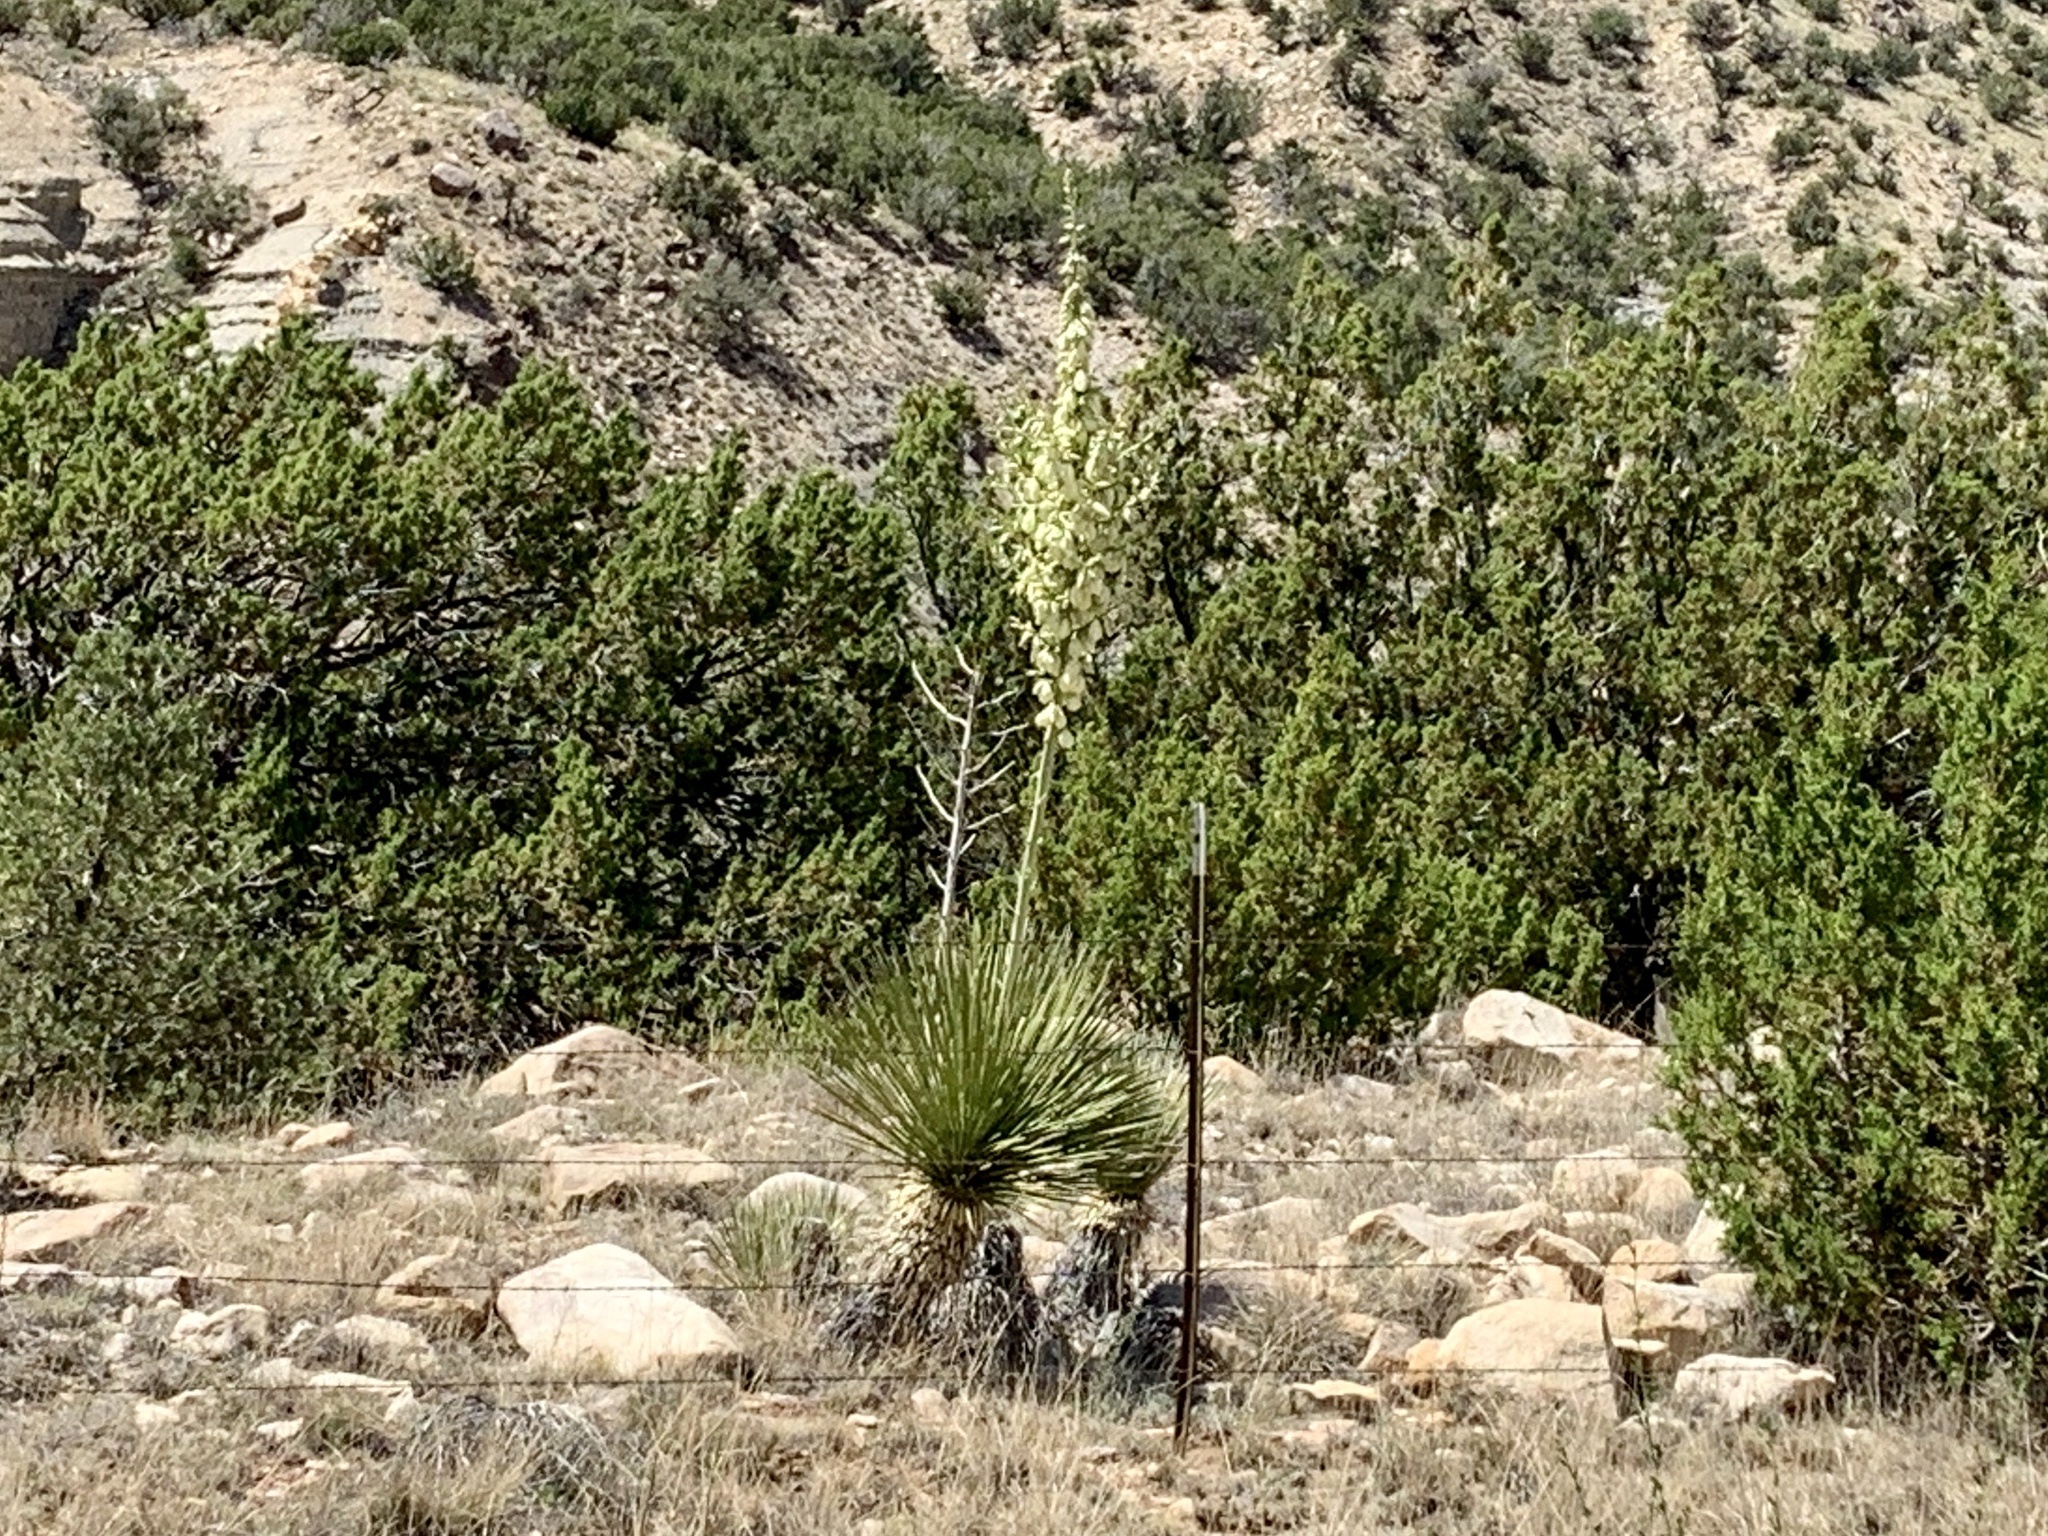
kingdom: Plantae
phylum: Tracheophyta
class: Liliopsida
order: Asparagales
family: Asparagaceae
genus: Yucca
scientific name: Yucca elata
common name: Palmella
